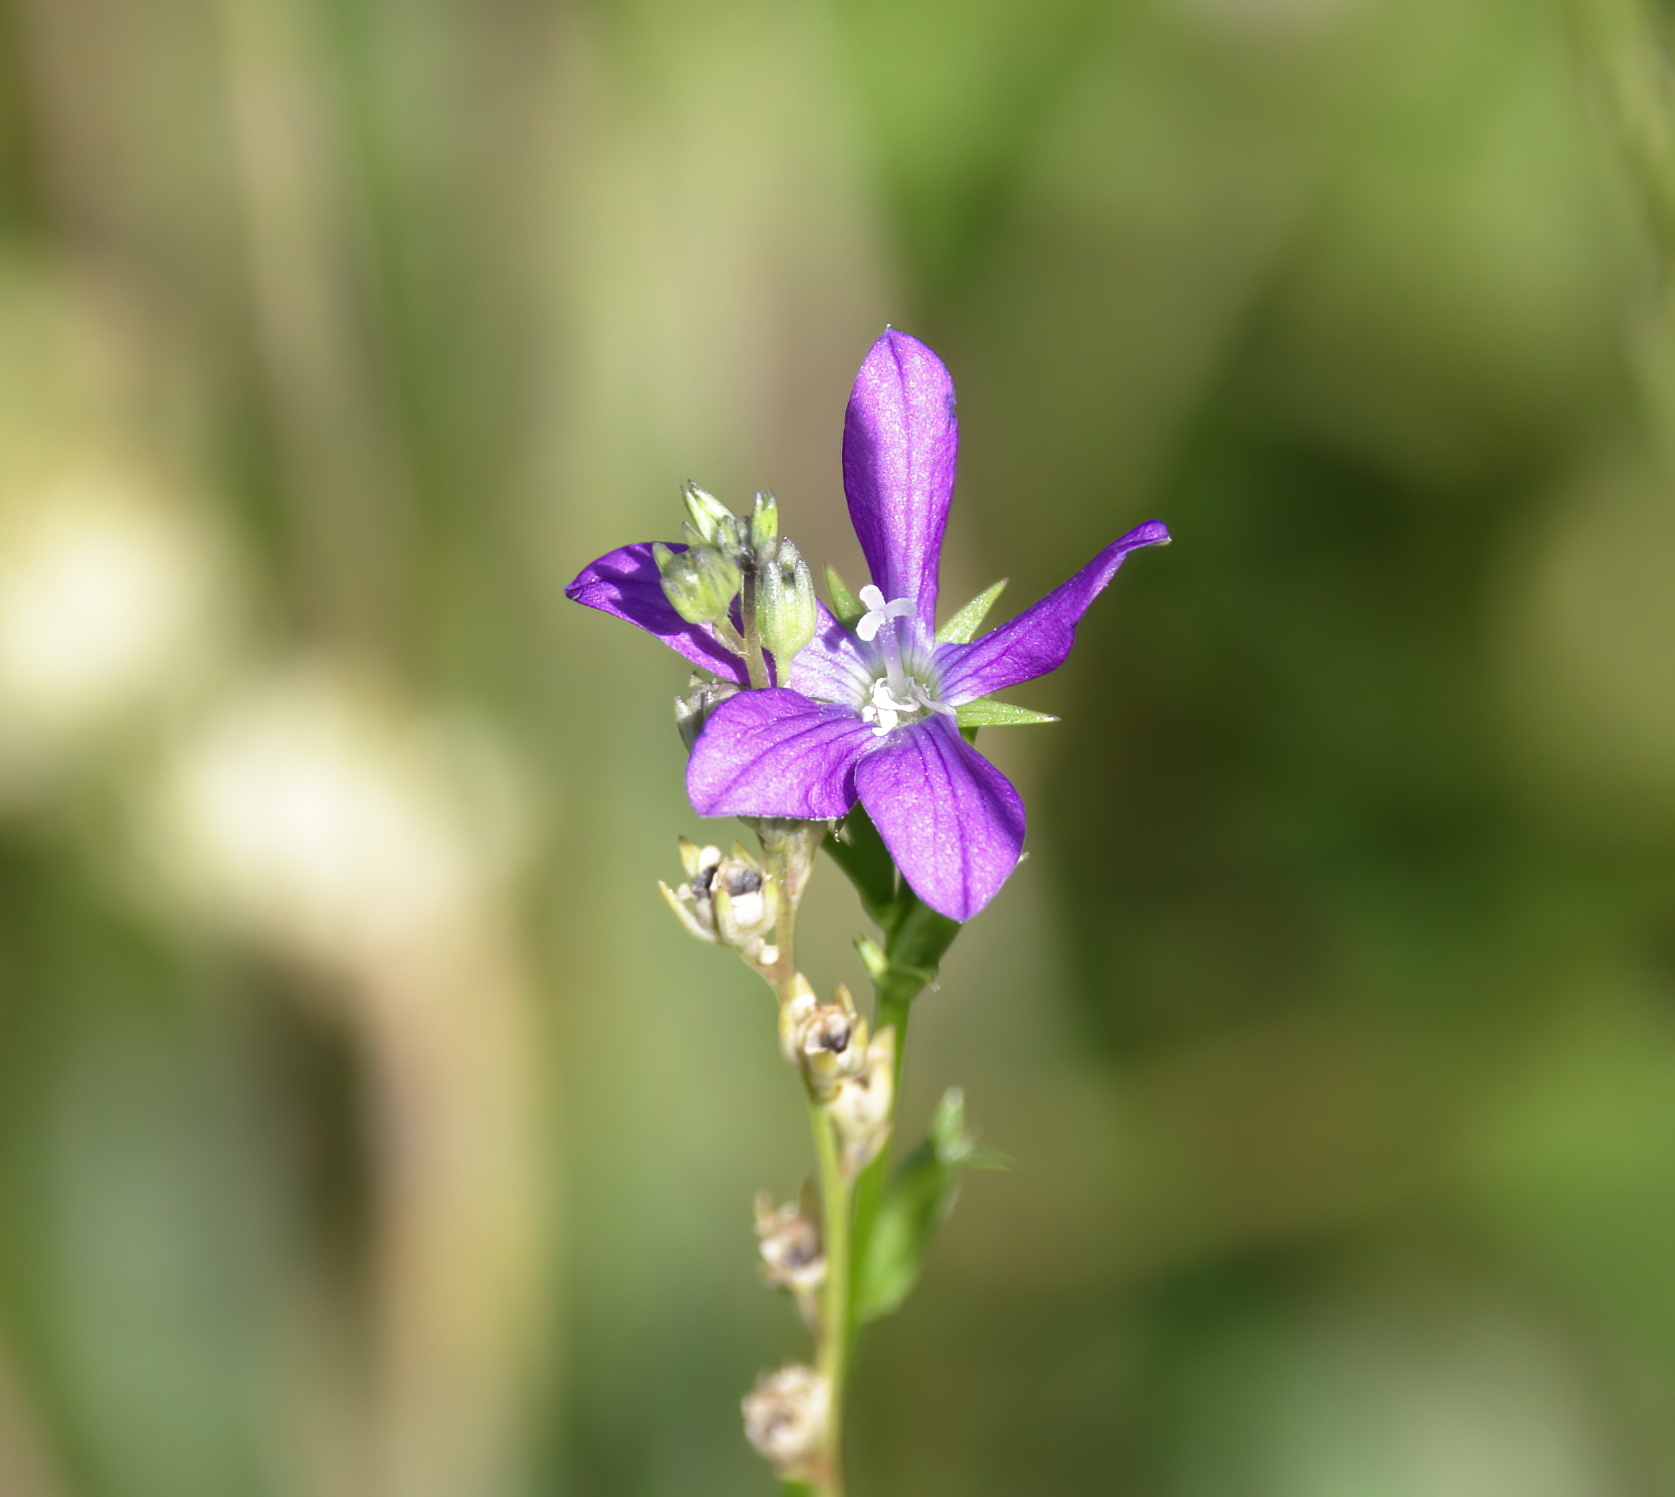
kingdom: Plantae
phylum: Tracheophyta
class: Magnoliopsida
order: Asterales
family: Campanulaceae
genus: Triodanis
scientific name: Triodanis biflora
